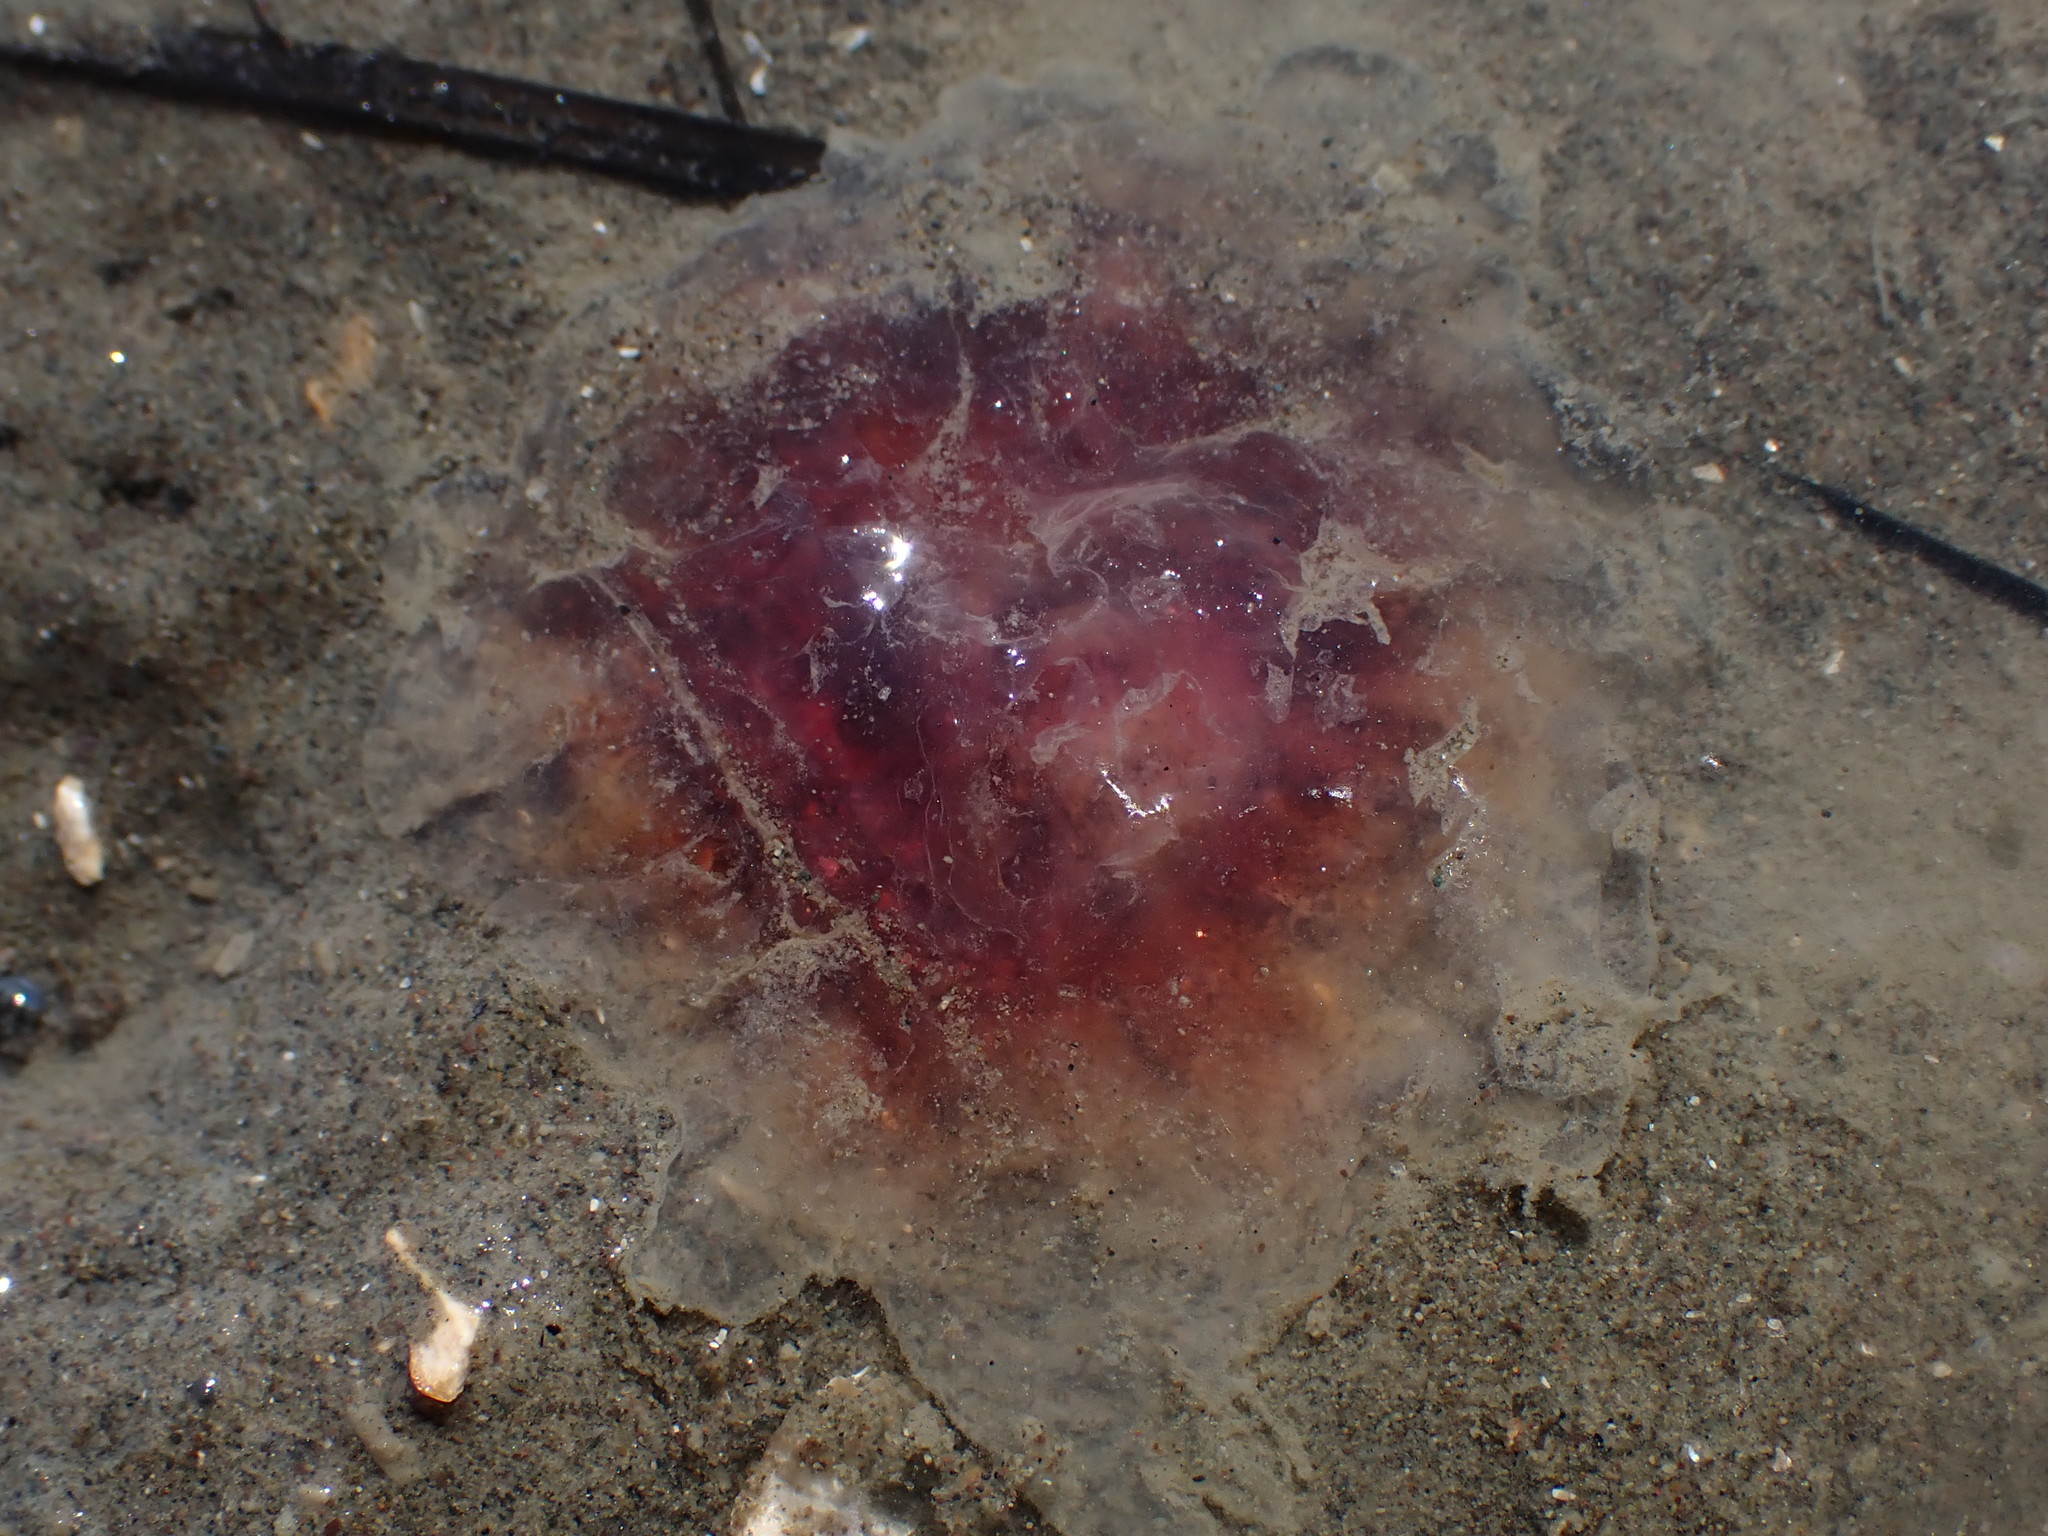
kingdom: Animalia
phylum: Cnidaria
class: Scyphozoa
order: Semaeostomeae
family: Cyaneidae
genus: Cyanea
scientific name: Cyanea
